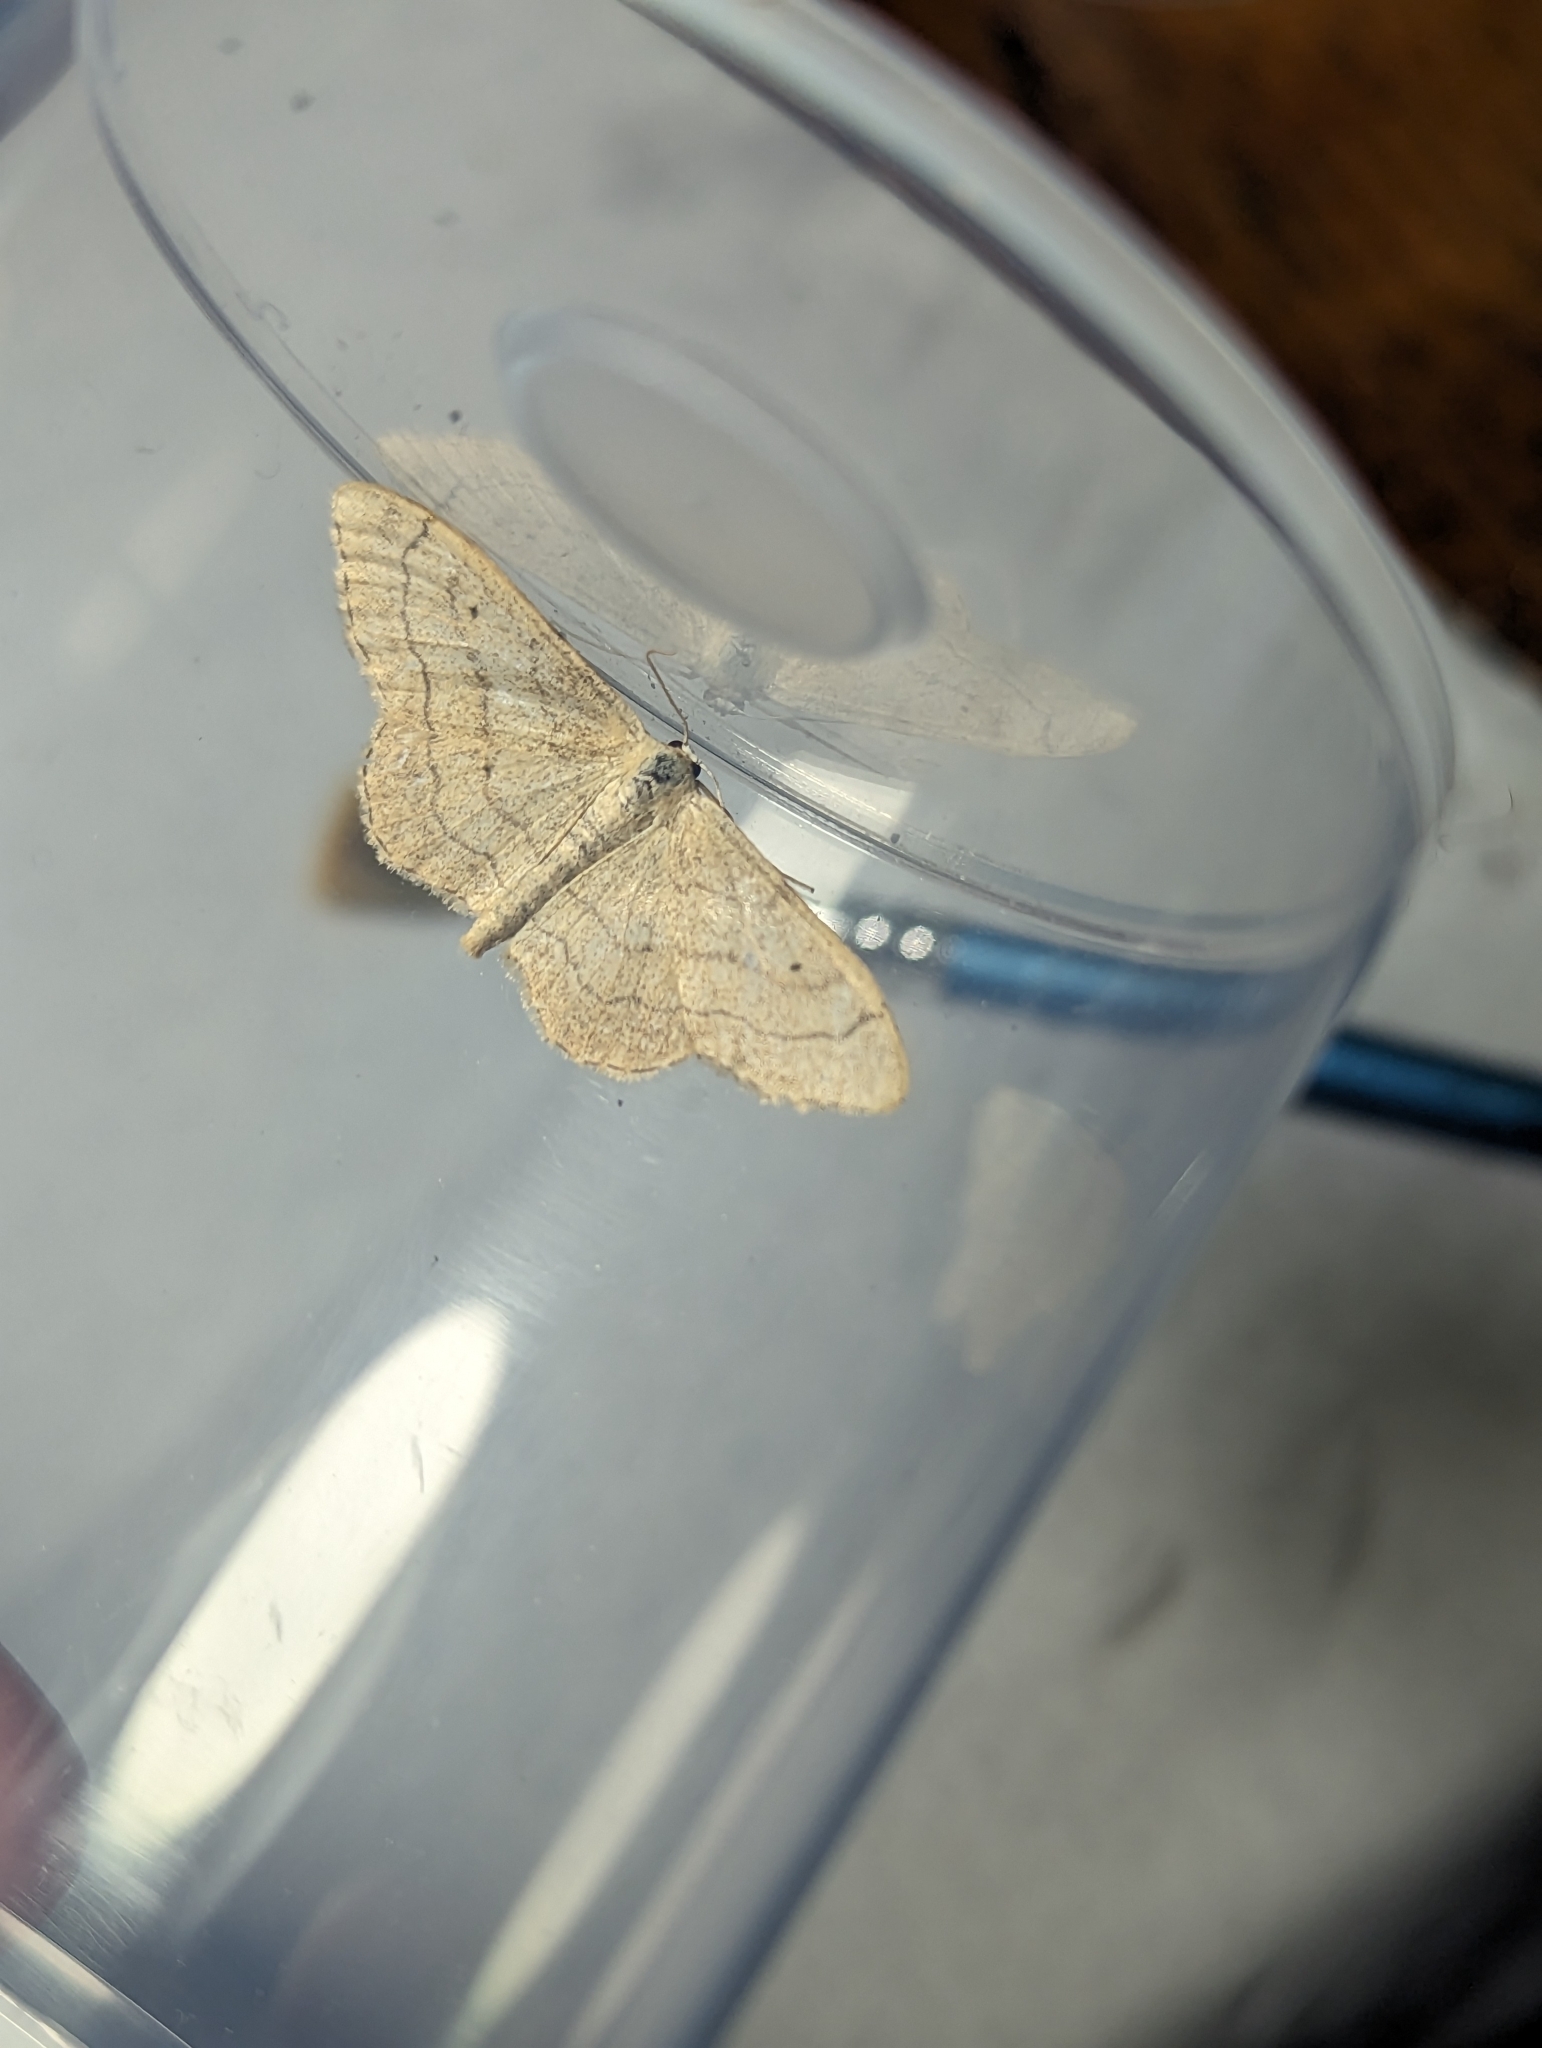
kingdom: Animalia
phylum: Arthropoda
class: Insecta
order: Lepidoptera
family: Geometridae
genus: Idaea
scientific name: Idaea aversata
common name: Riband wave
